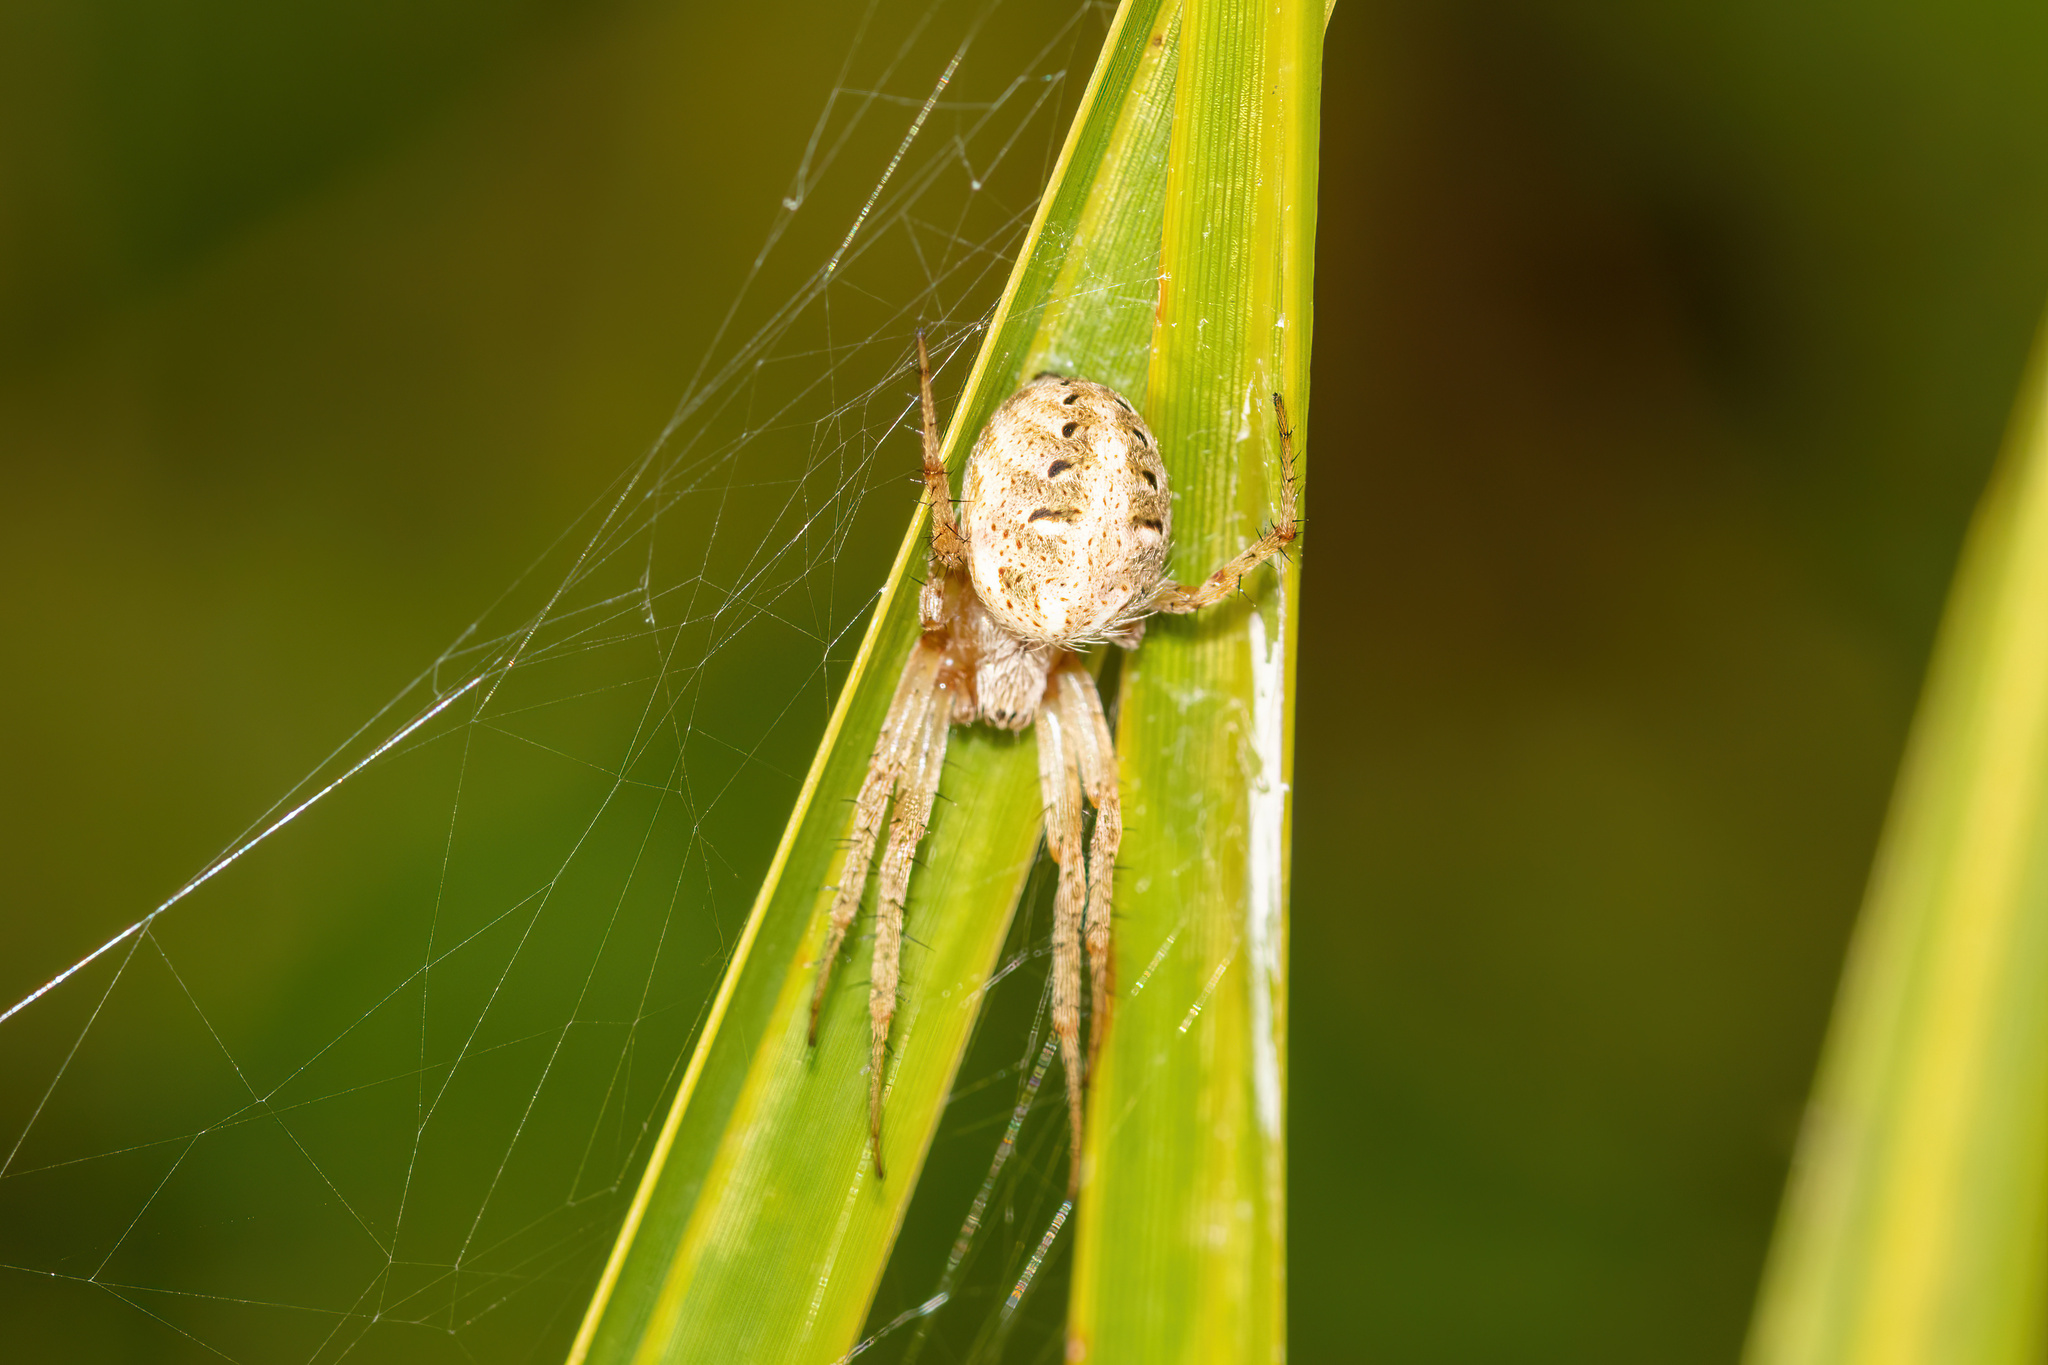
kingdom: Animalia
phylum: Arthropoda
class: Arachnida
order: Araneae
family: Araneidae
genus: Neoscona
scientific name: Neoscona arabesca
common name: Orb weavers
